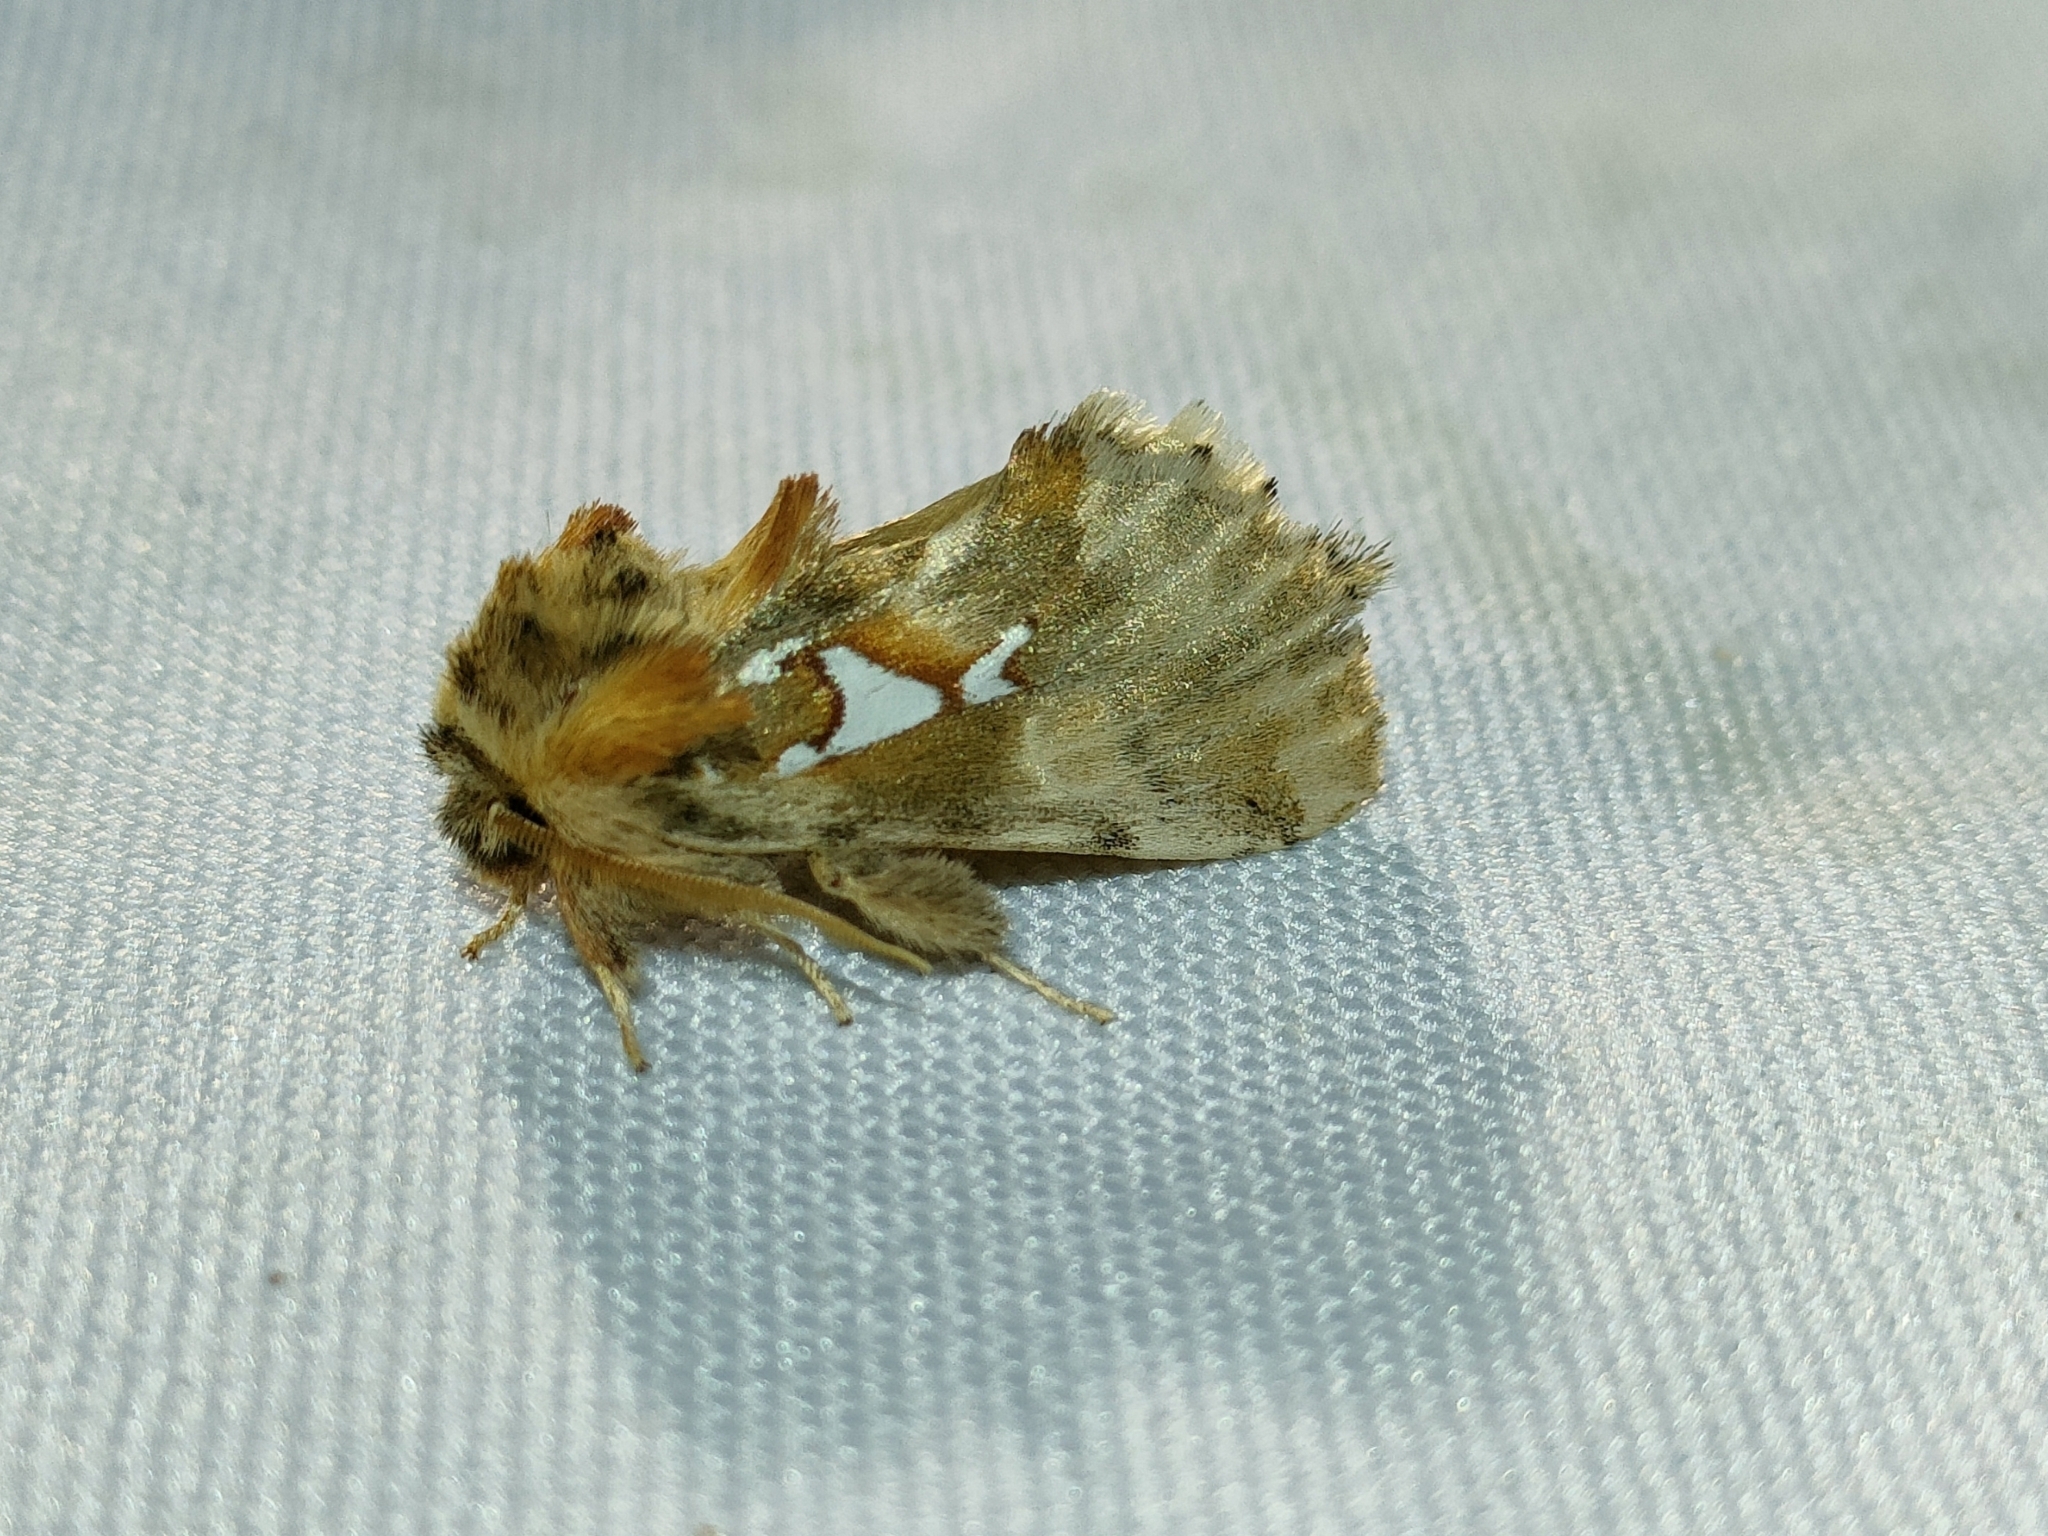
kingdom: Animalia
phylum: Arthropoda
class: Insecta
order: Lepidoptera
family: Notodontidae
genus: Spatalia
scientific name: Spatalia argentina
